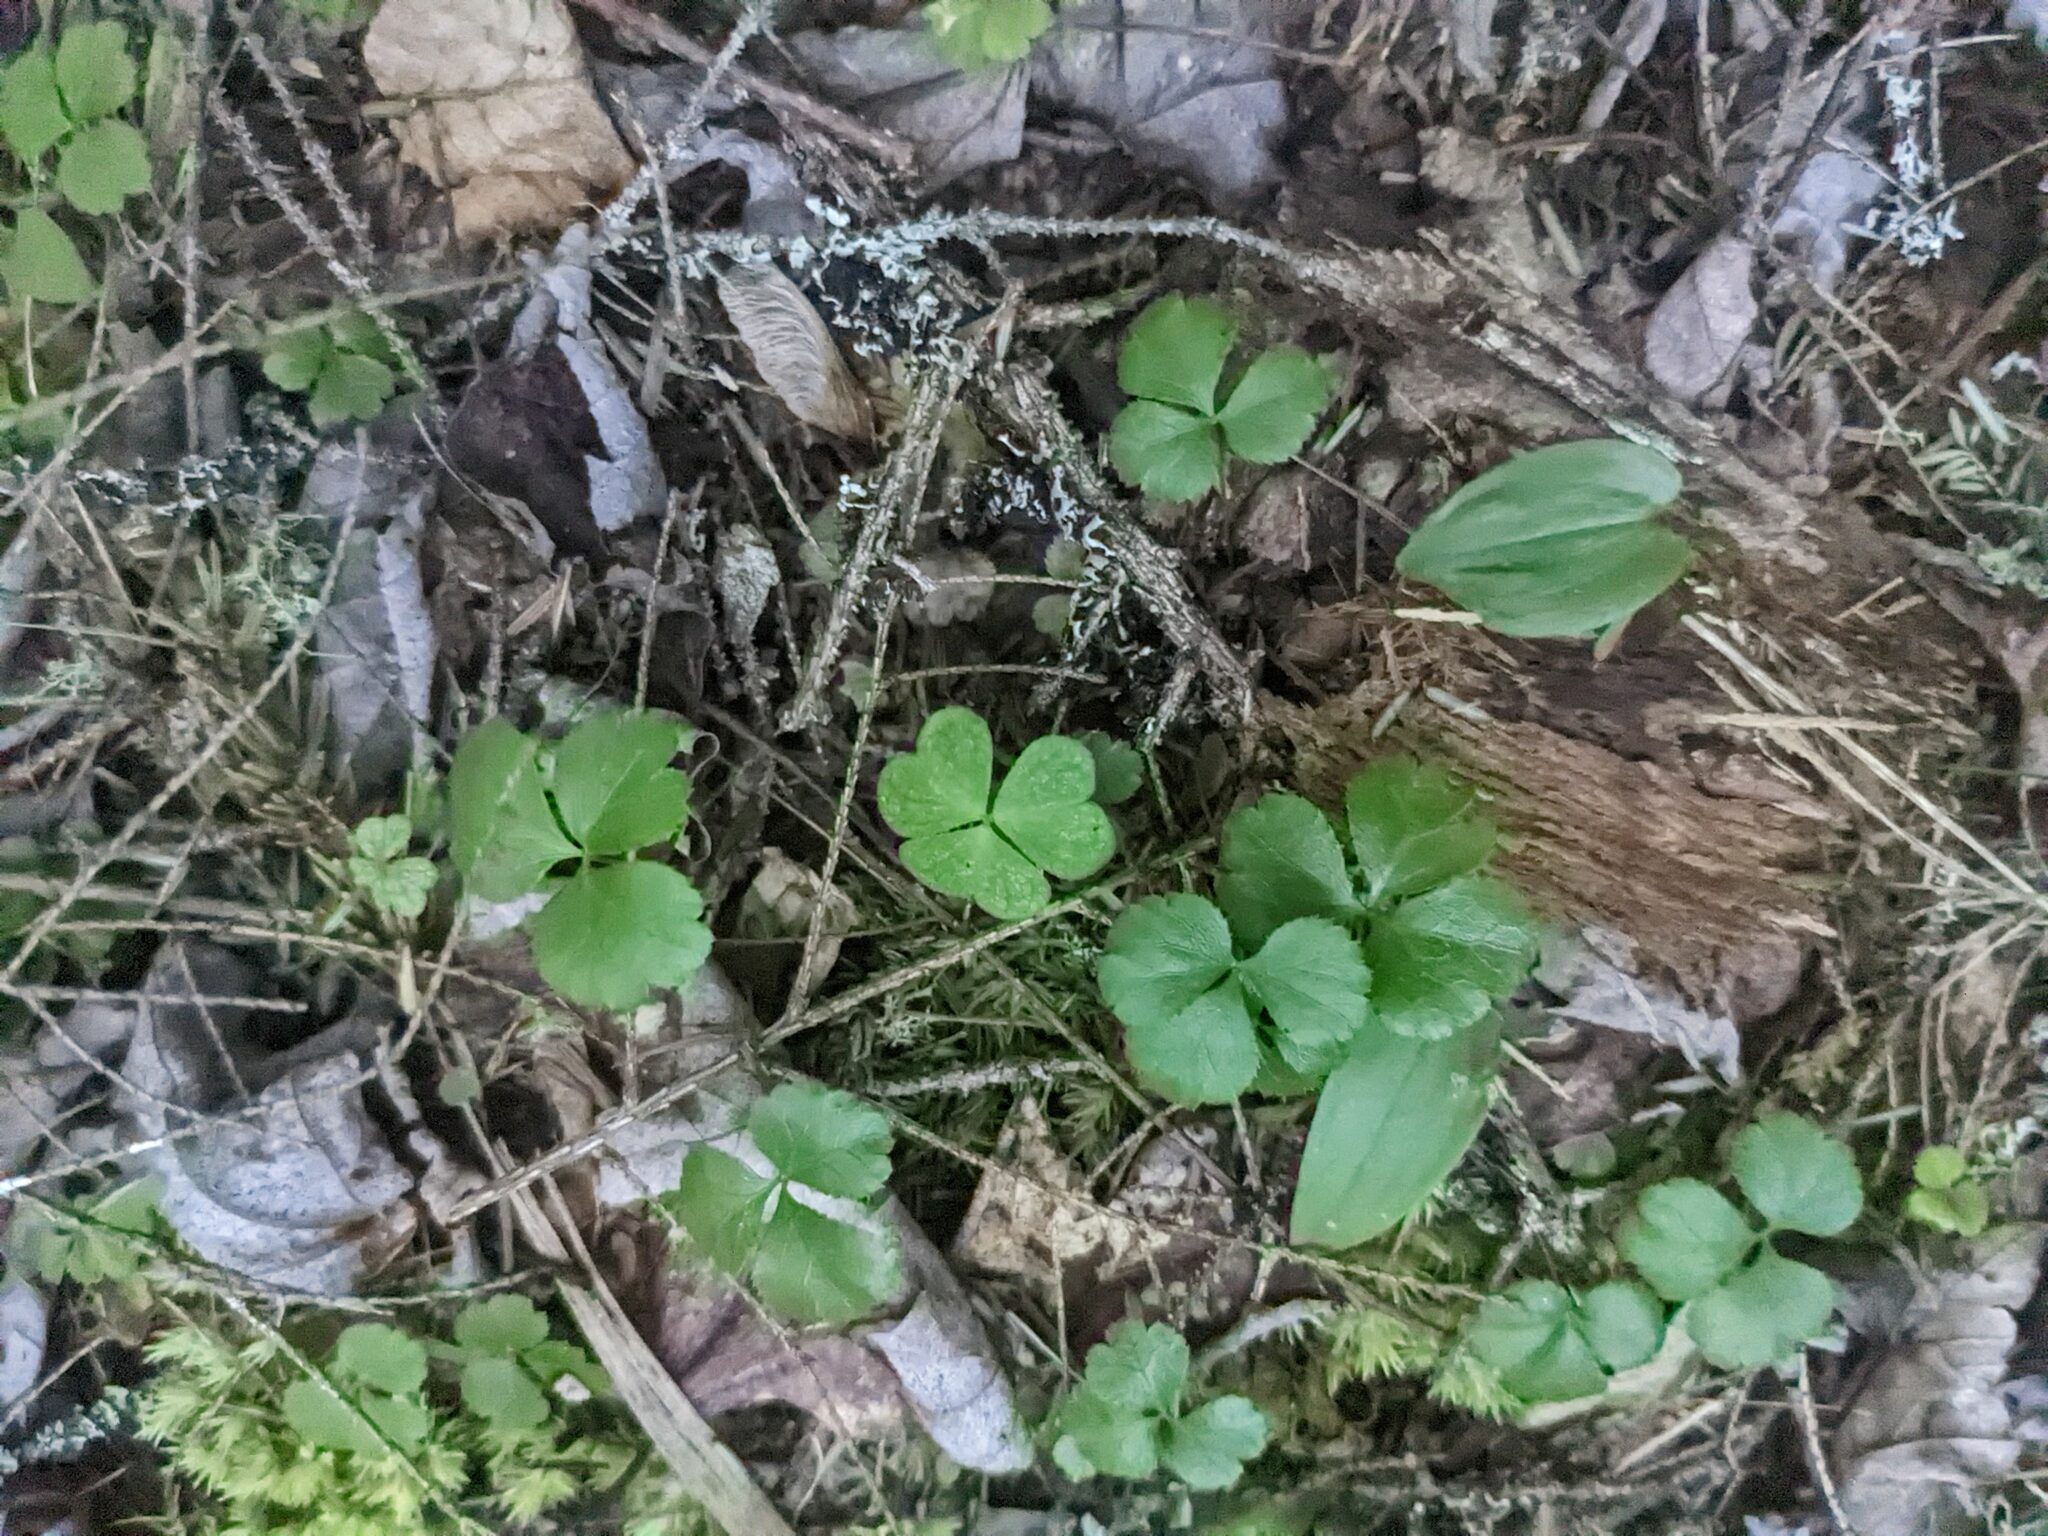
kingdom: Plantae
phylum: Tracheophyta
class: Magnoliopsida
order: Oxalidales
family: Oxalidaceae
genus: Oxalis
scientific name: Oxalis montana
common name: American wood-sorrel
